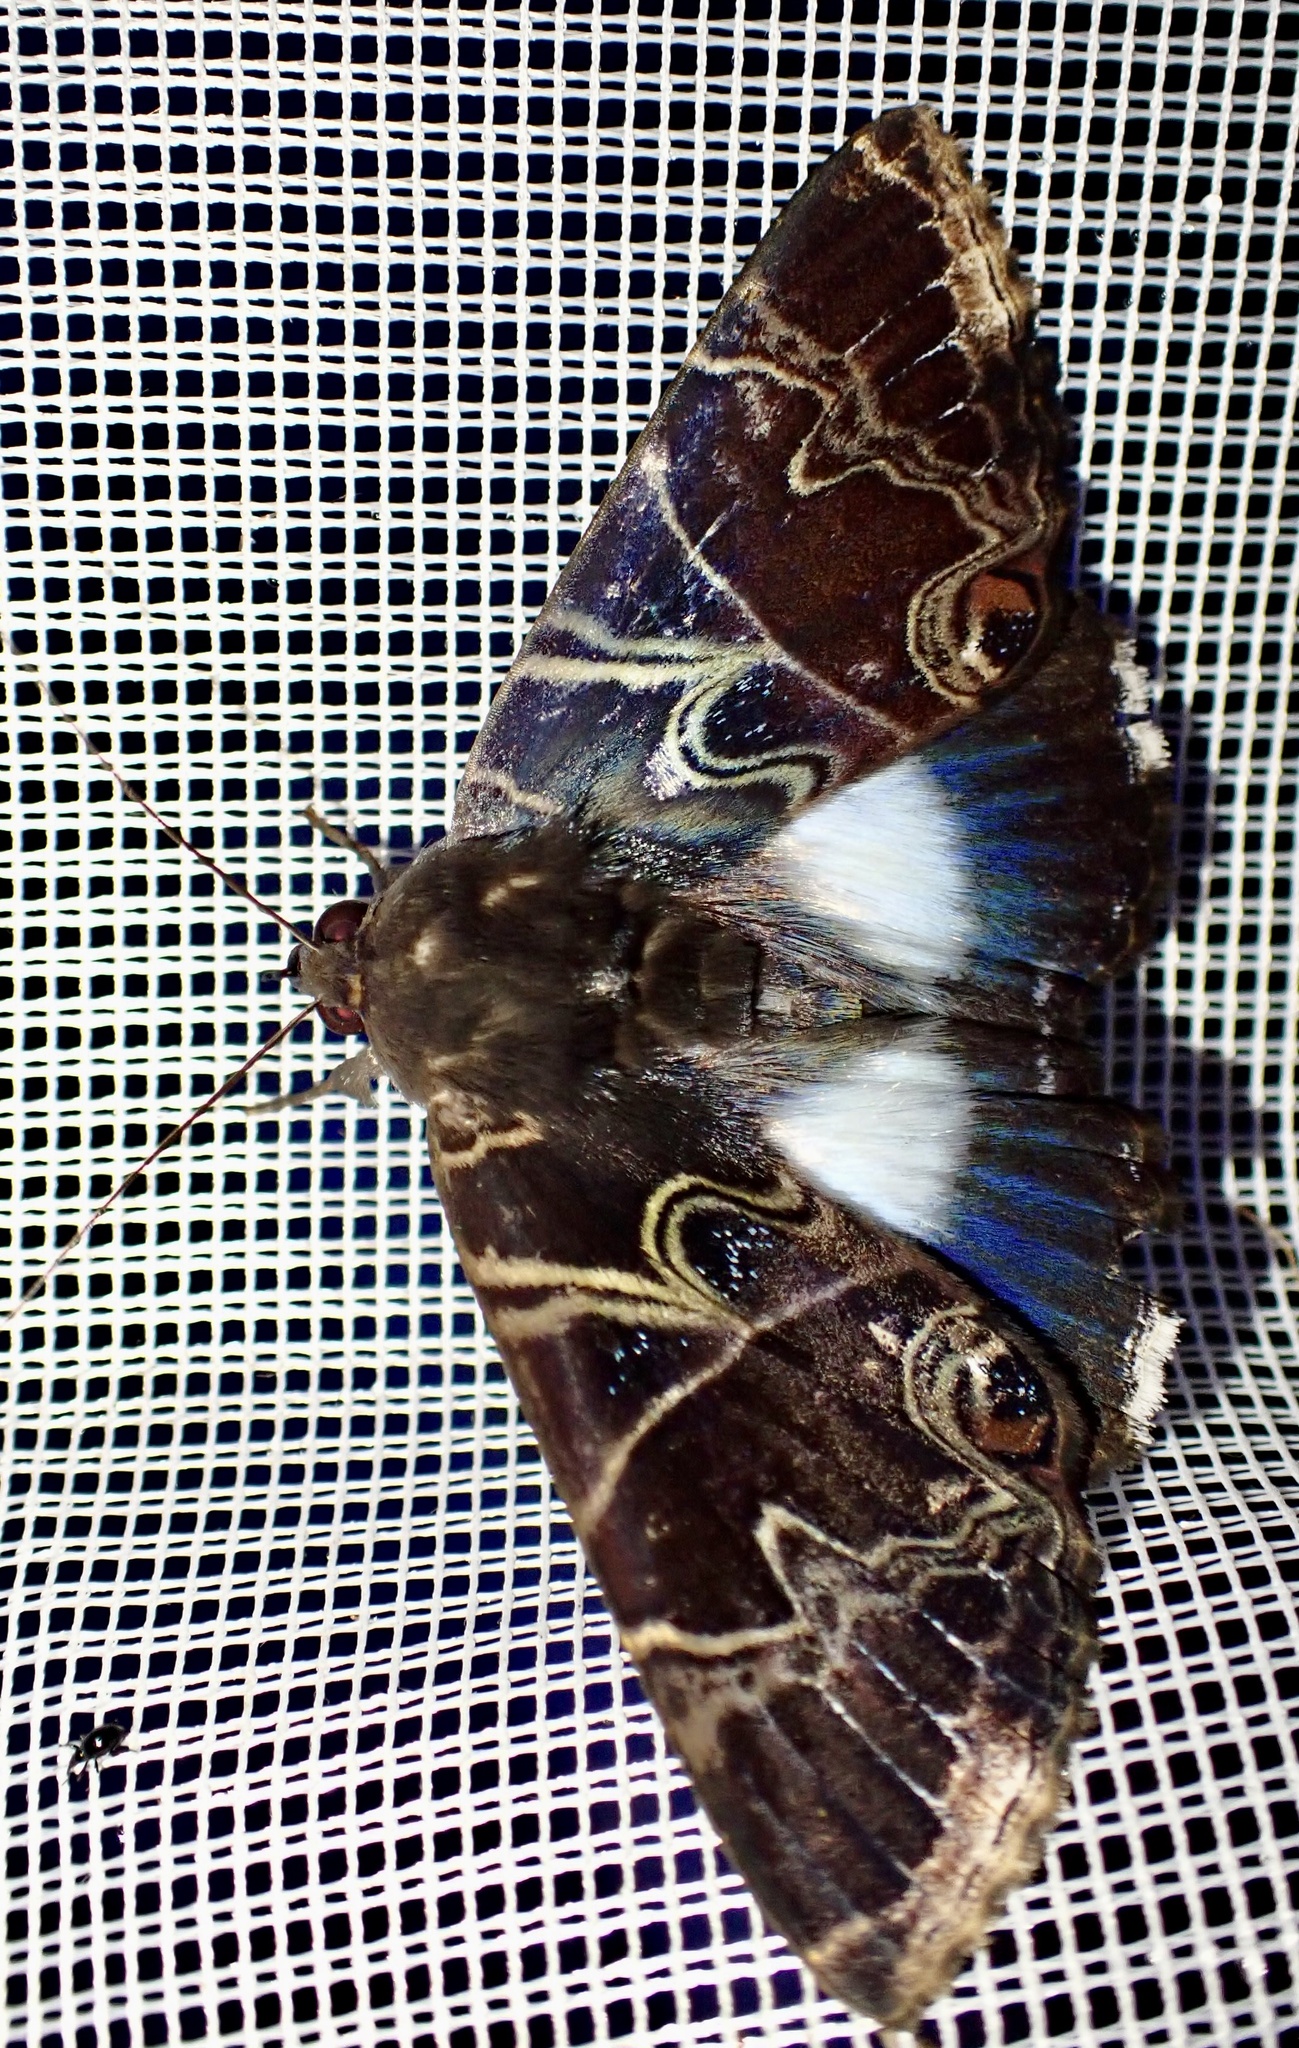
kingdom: Animalia
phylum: Arthropoda
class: Insecta
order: Lepidoptera
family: Erebidae
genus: Leistera
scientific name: Leistera hampsonia
